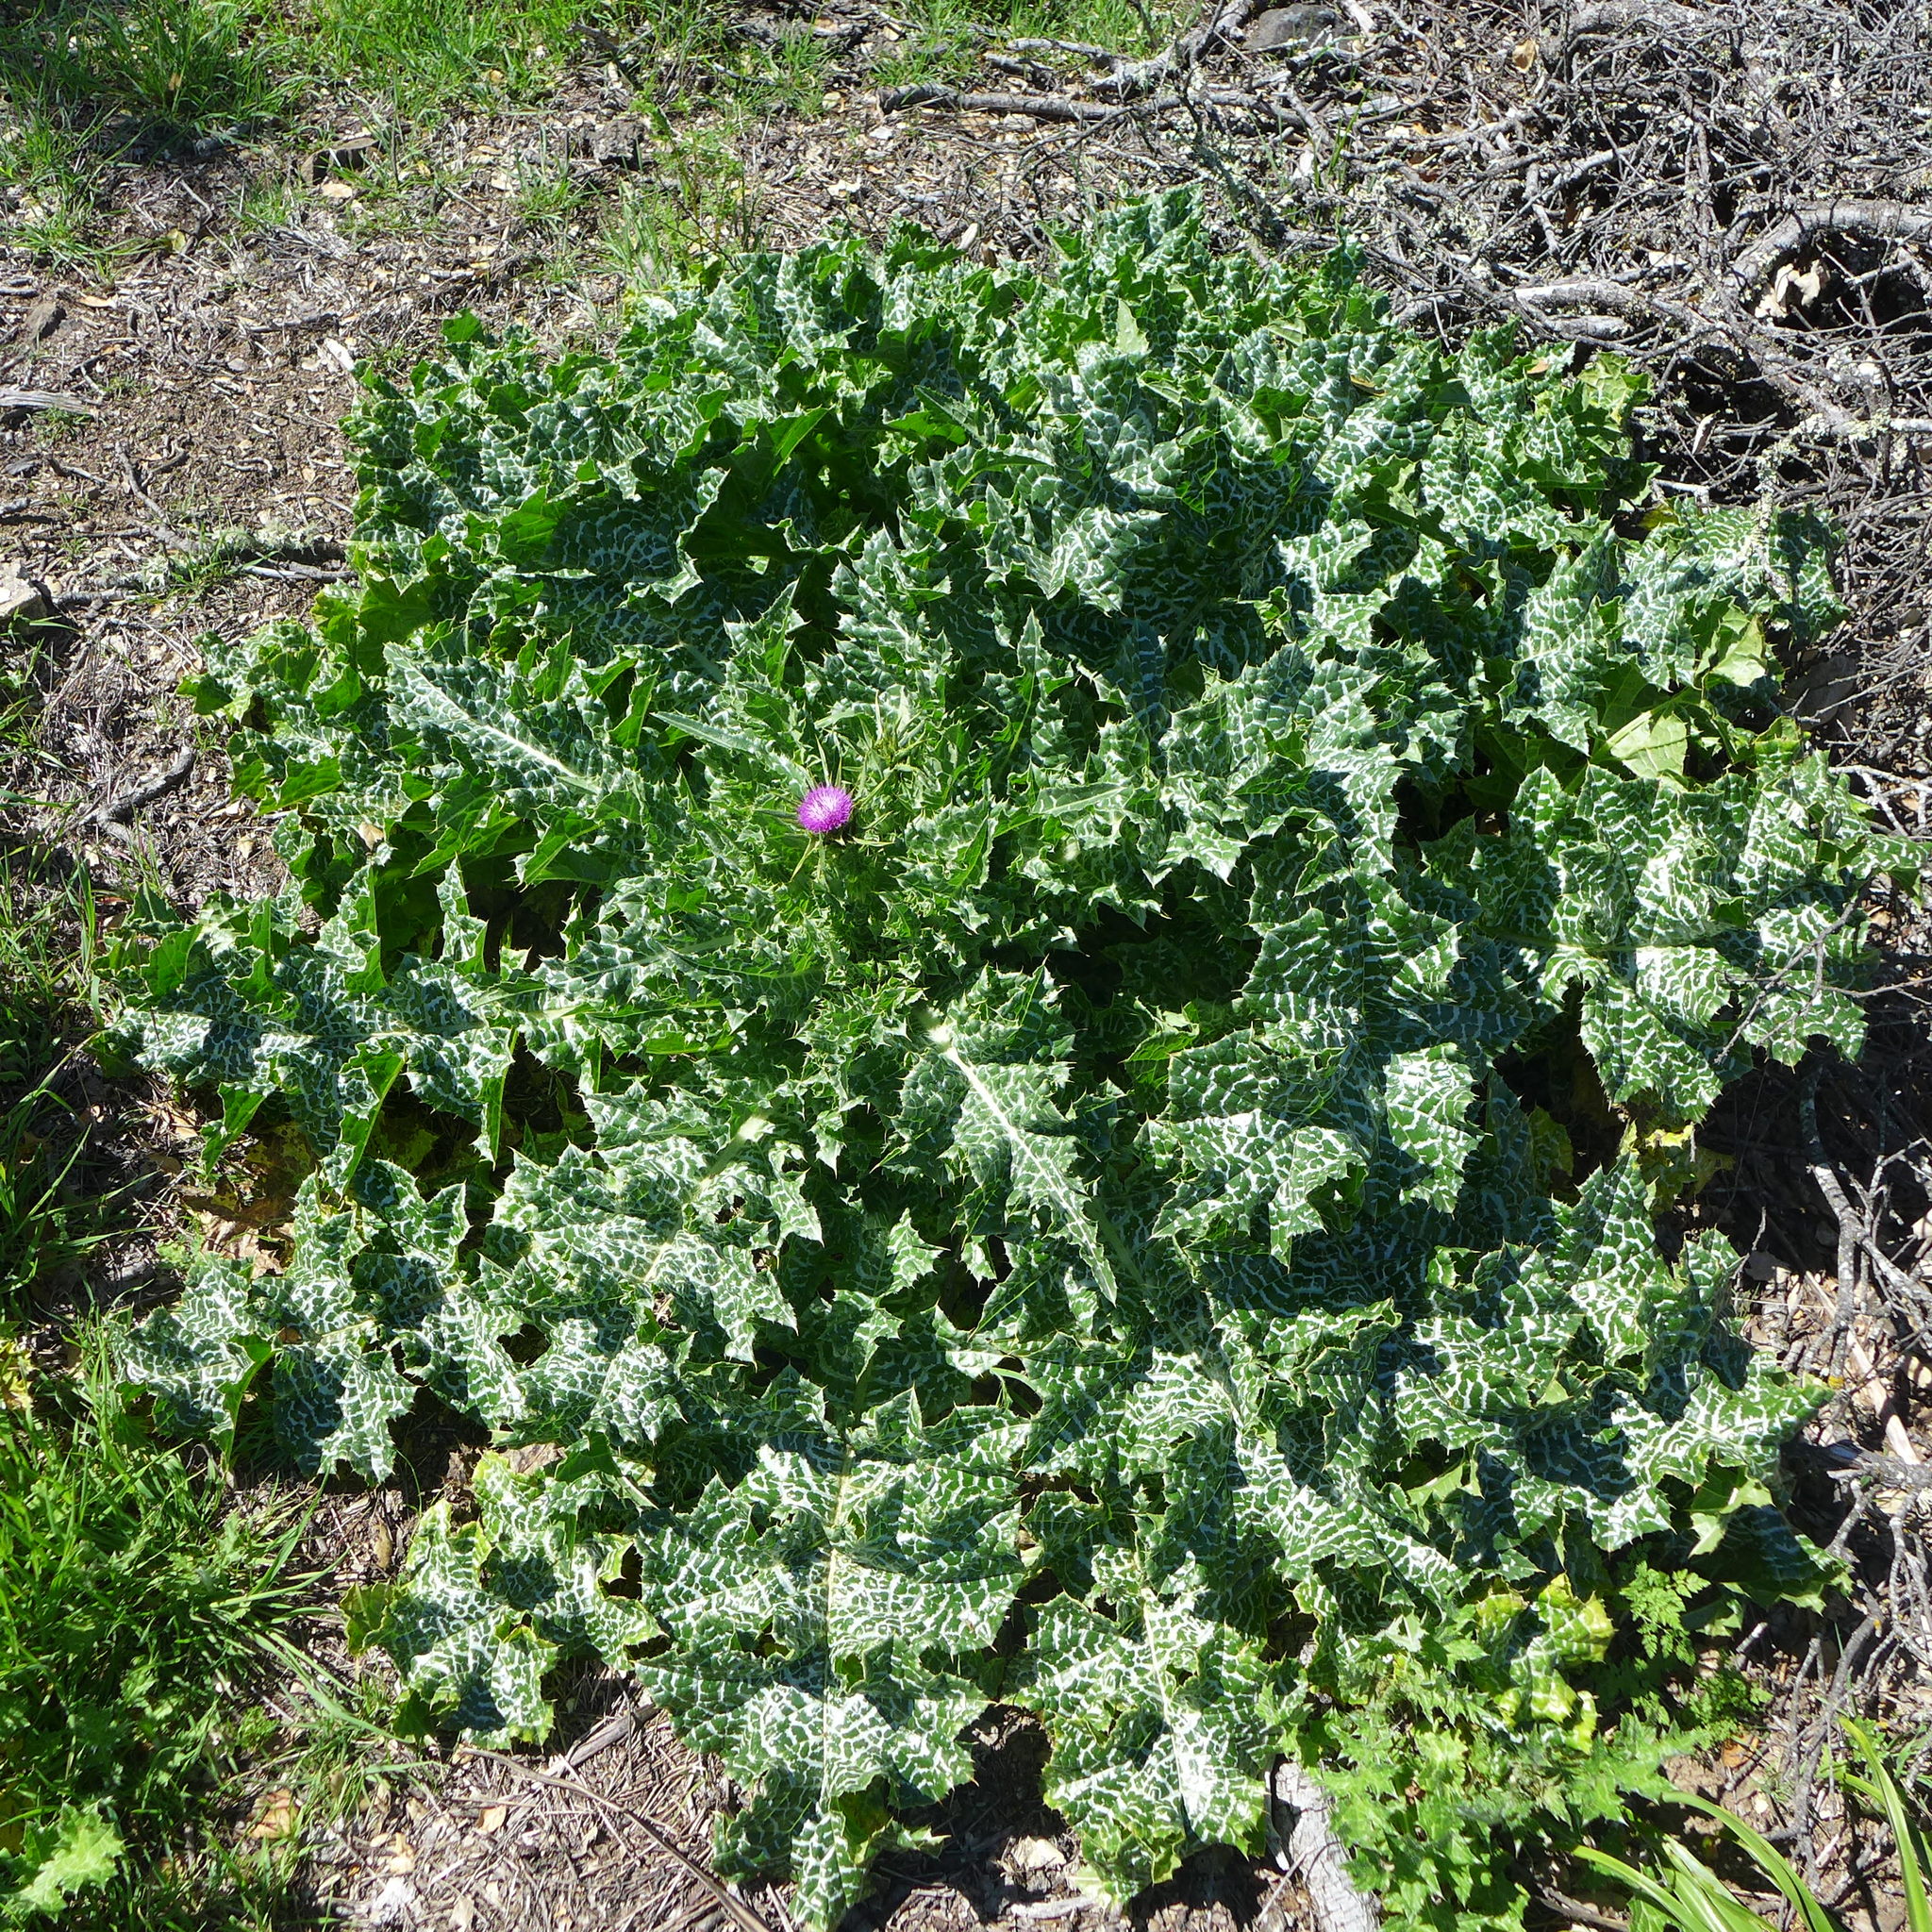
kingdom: Plantae
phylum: Tracheophyta
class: Magnoliopsida
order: Asterales
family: Asteraceae
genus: Silybum
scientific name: Silybum marianum
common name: Milk thistle
